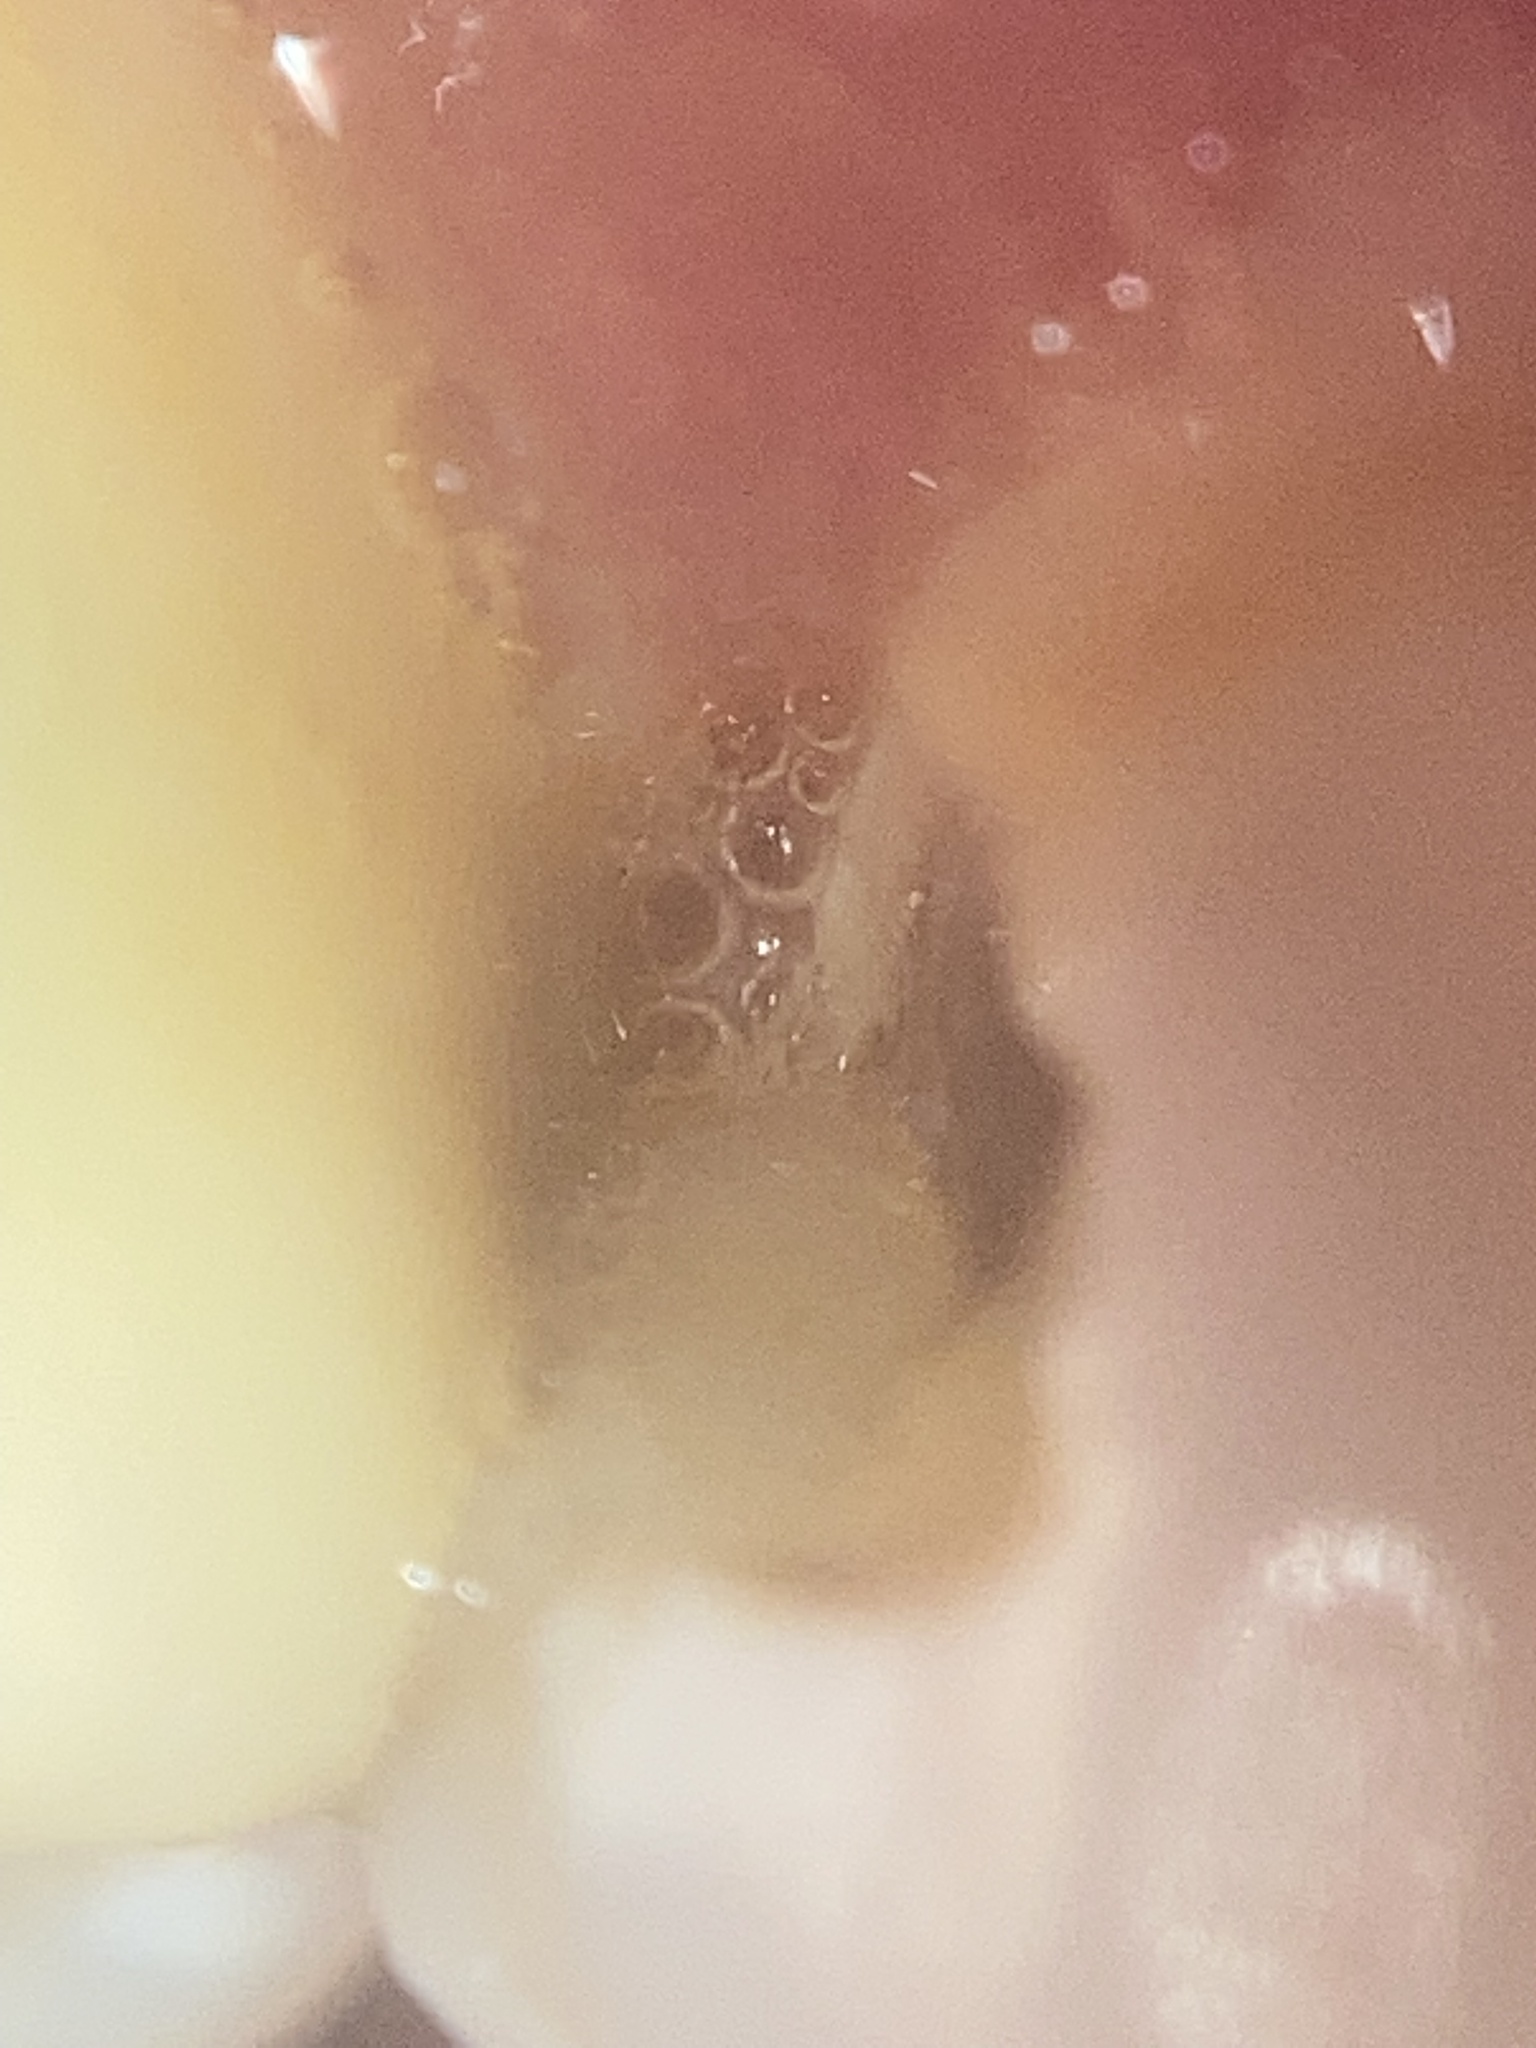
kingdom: Bacteria
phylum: Firmicutes
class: Bacilli
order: Lactobacillales
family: Streptococcaceae
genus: Streptococcus
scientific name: Streptococcus mutans
